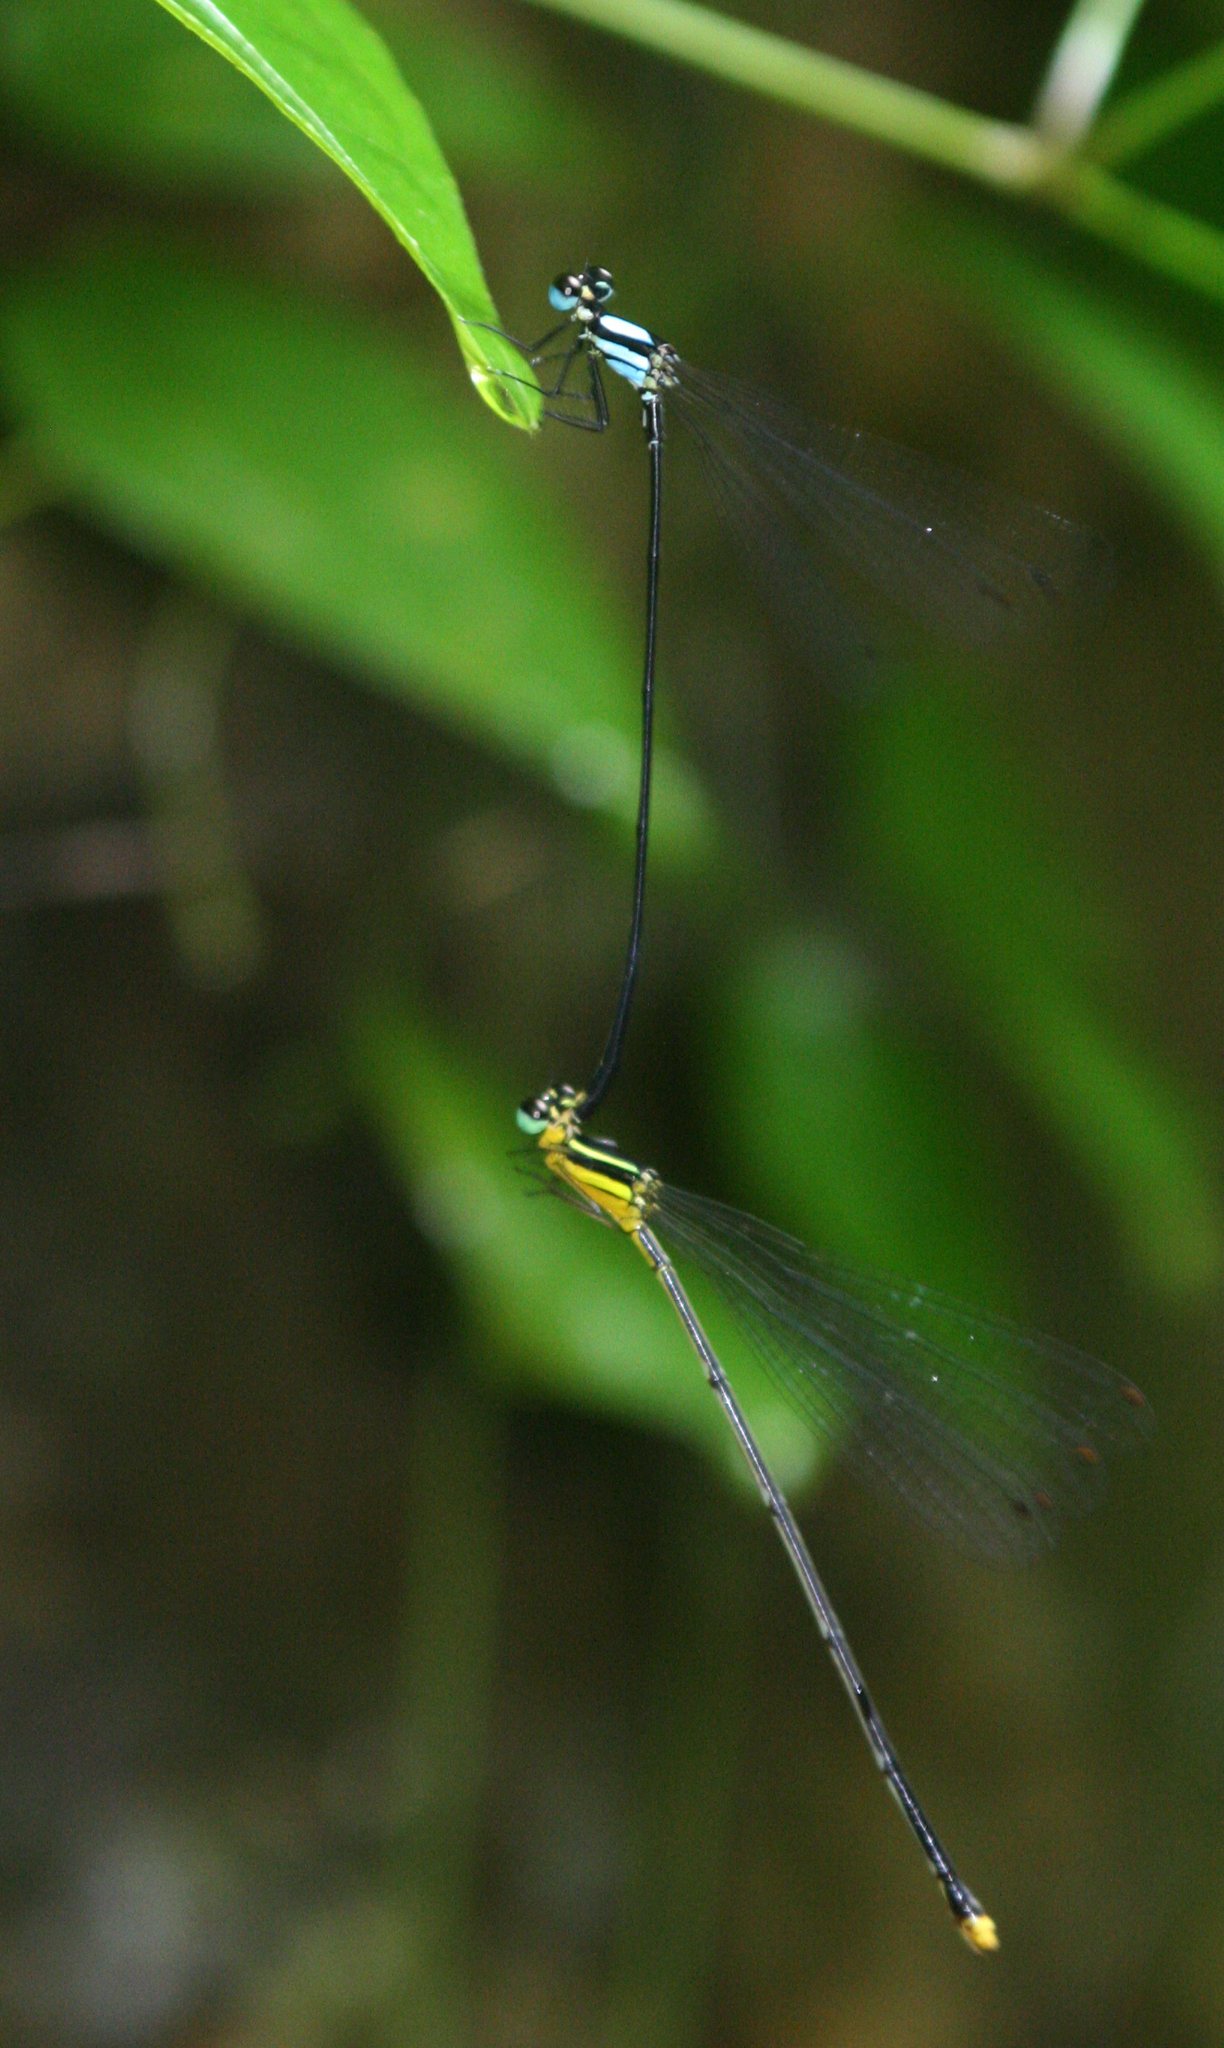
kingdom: Animalia
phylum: Arthropoda
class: Insecta
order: Odonata
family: Platycnemididae
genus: Coeliccia
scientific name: Coeliccia poungyi
